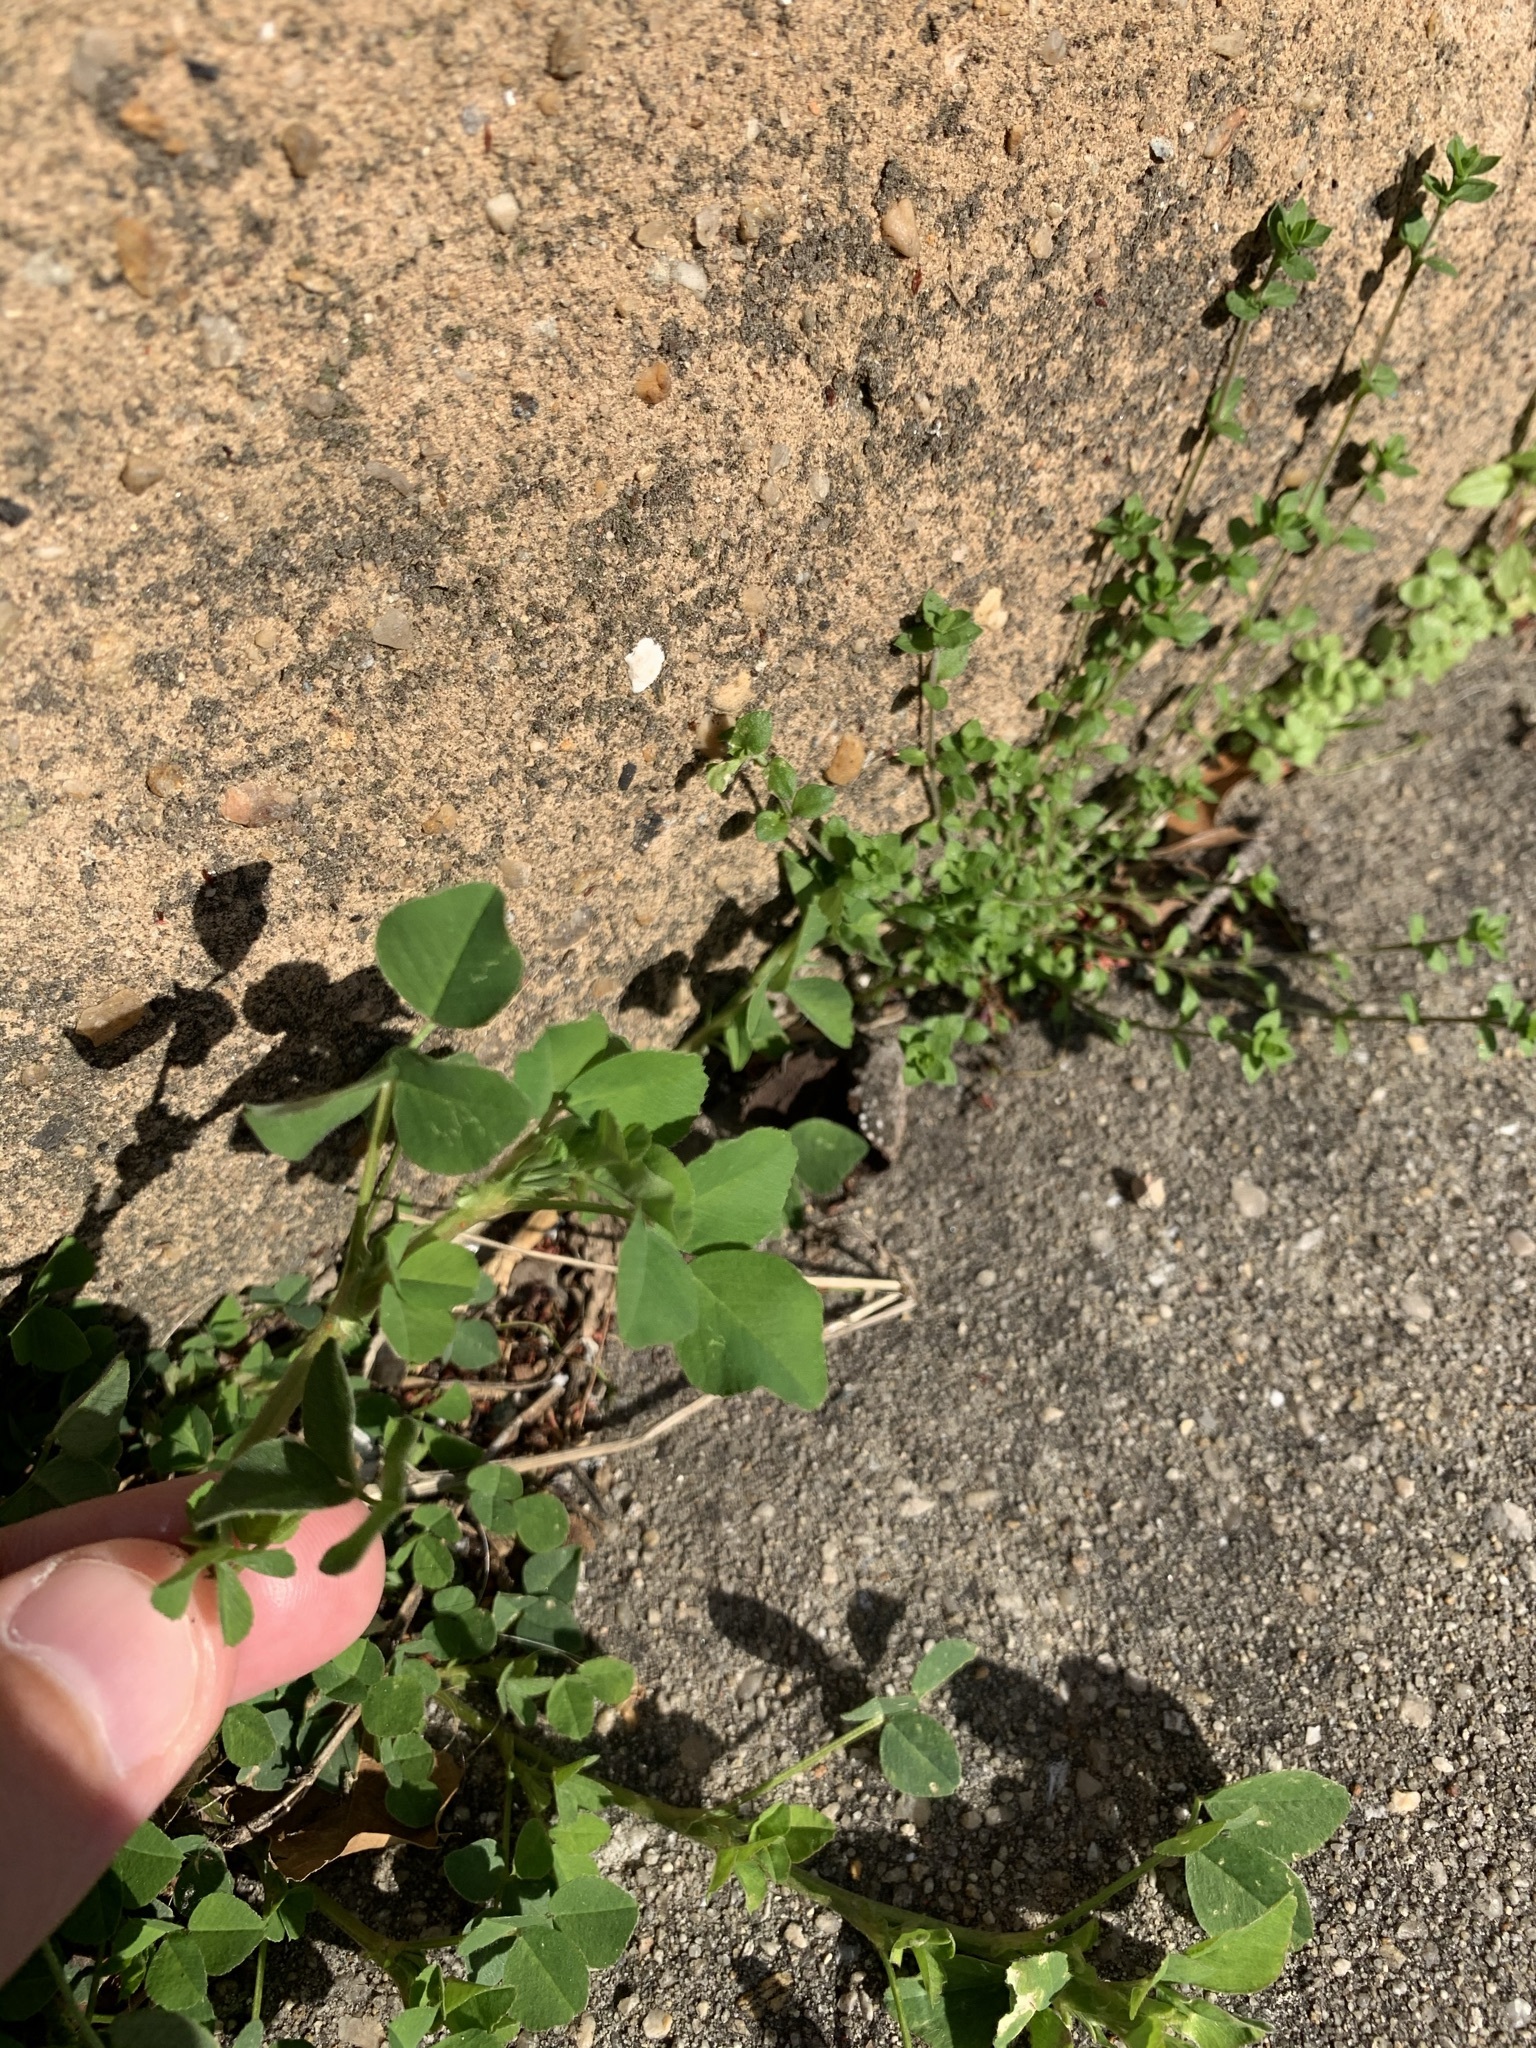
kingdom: Plantae
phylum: Tracheophyta
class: Magnoliopsida
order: Fabales
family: Fabaceae
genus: Medicago
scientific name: Medicago lupulina
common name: Black medick
